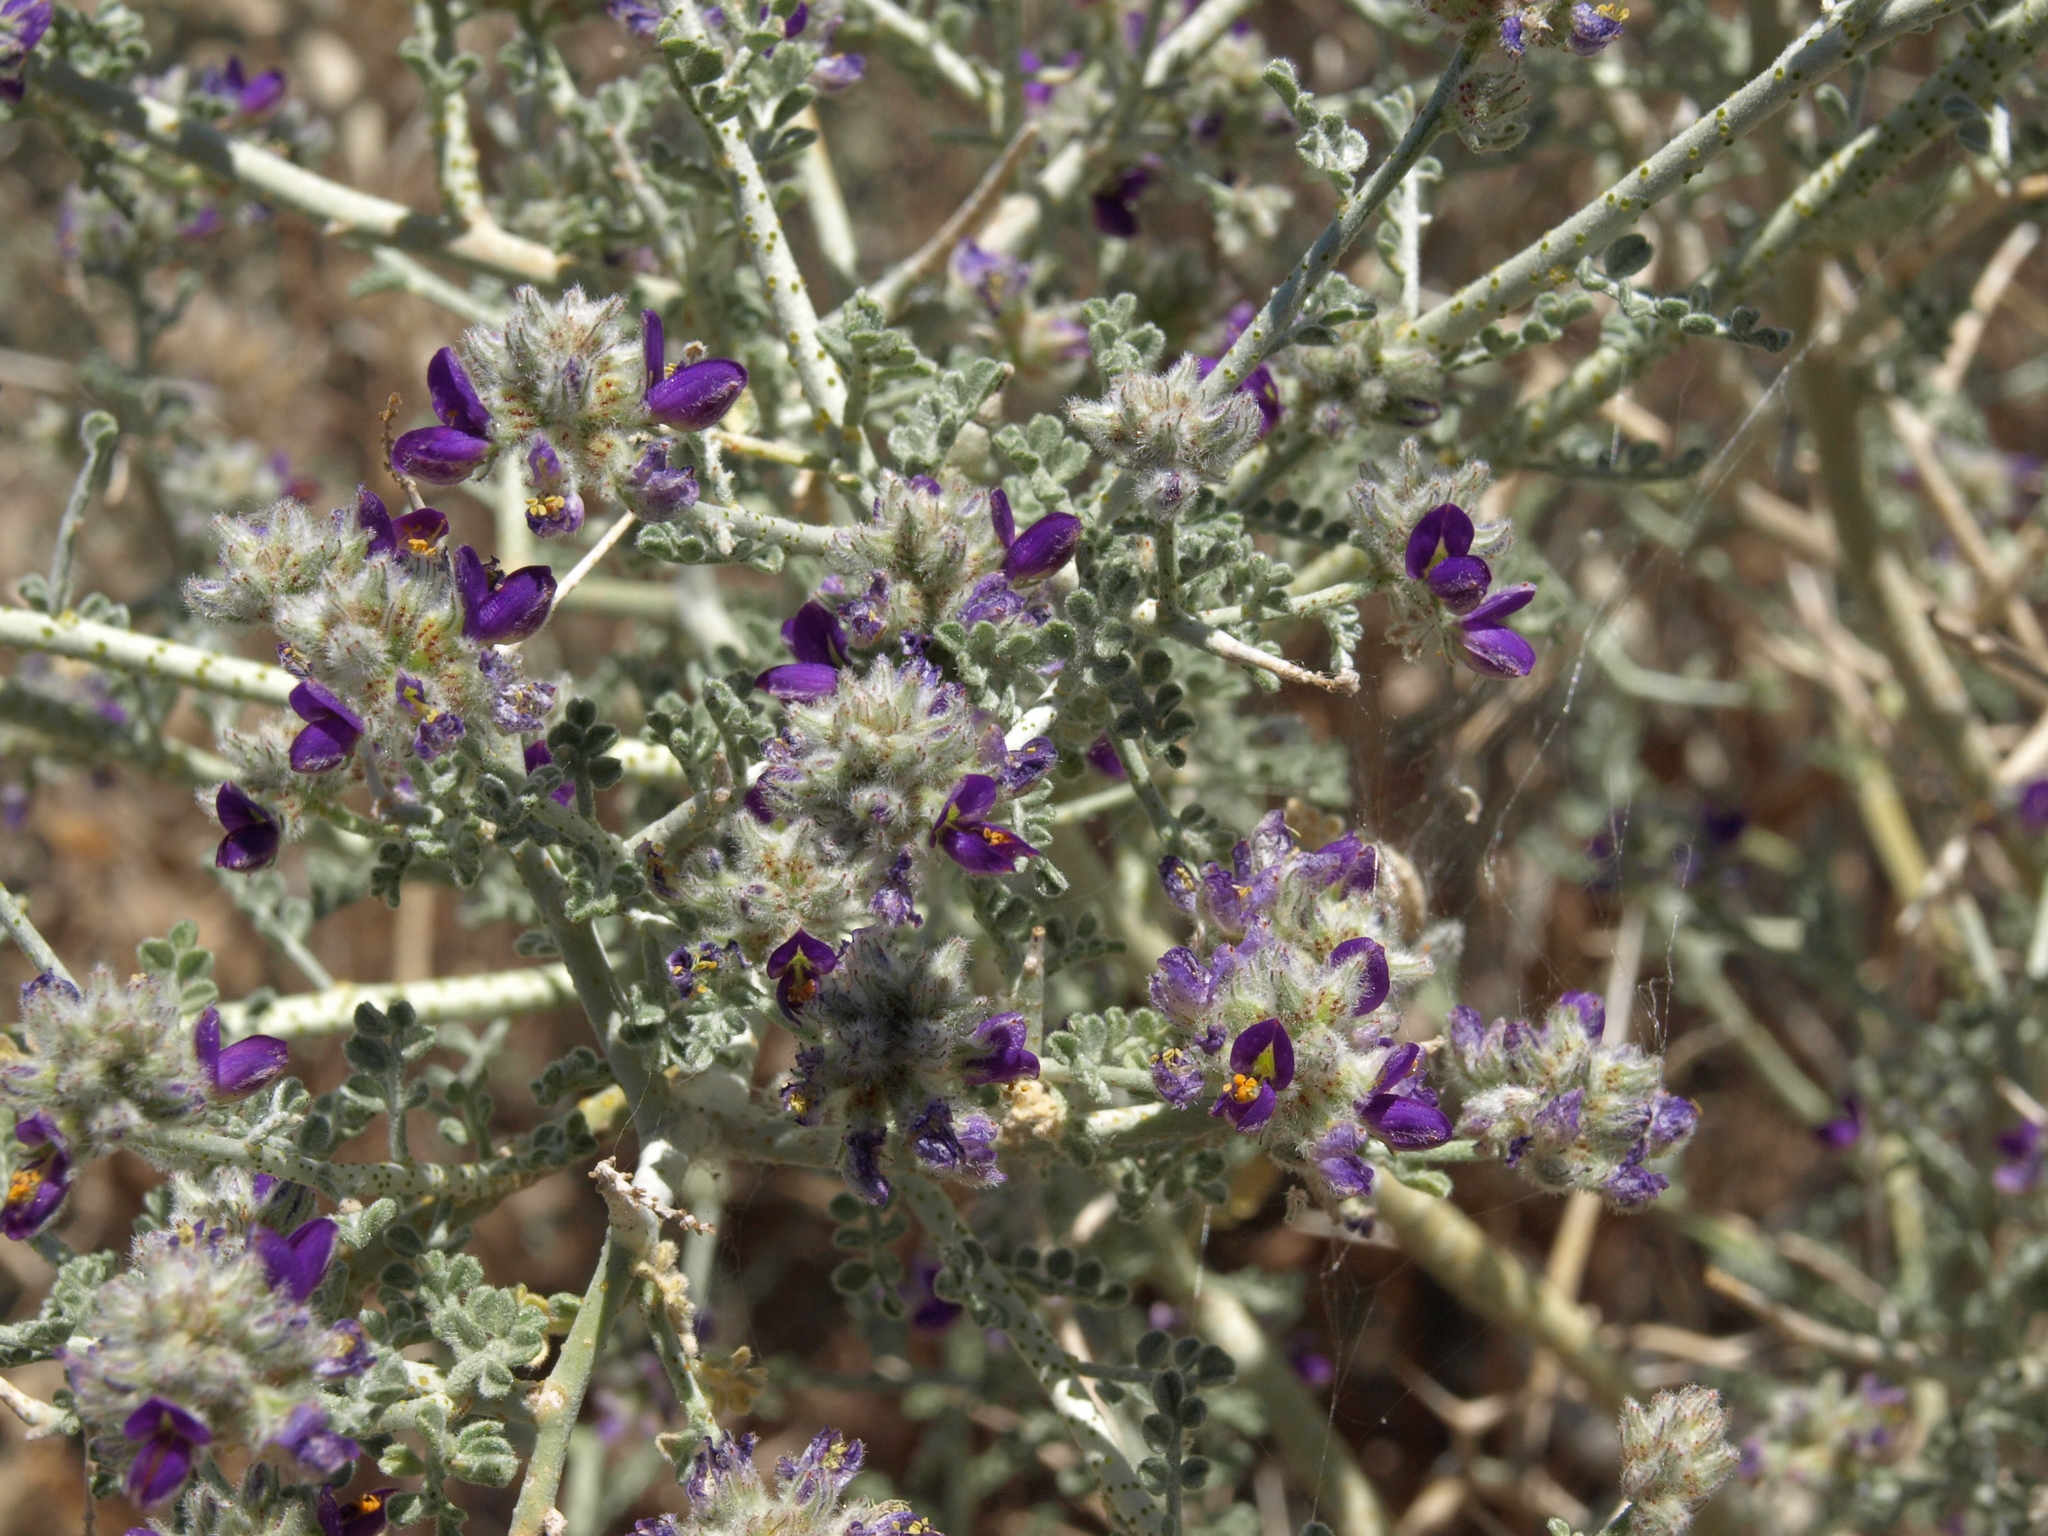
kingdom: Plantae
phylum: Tracheophyta
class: Magnoliopsida
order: Fabales
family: Fabaceae
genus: Psorothamnus
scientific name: Psorothamnus polydenius
